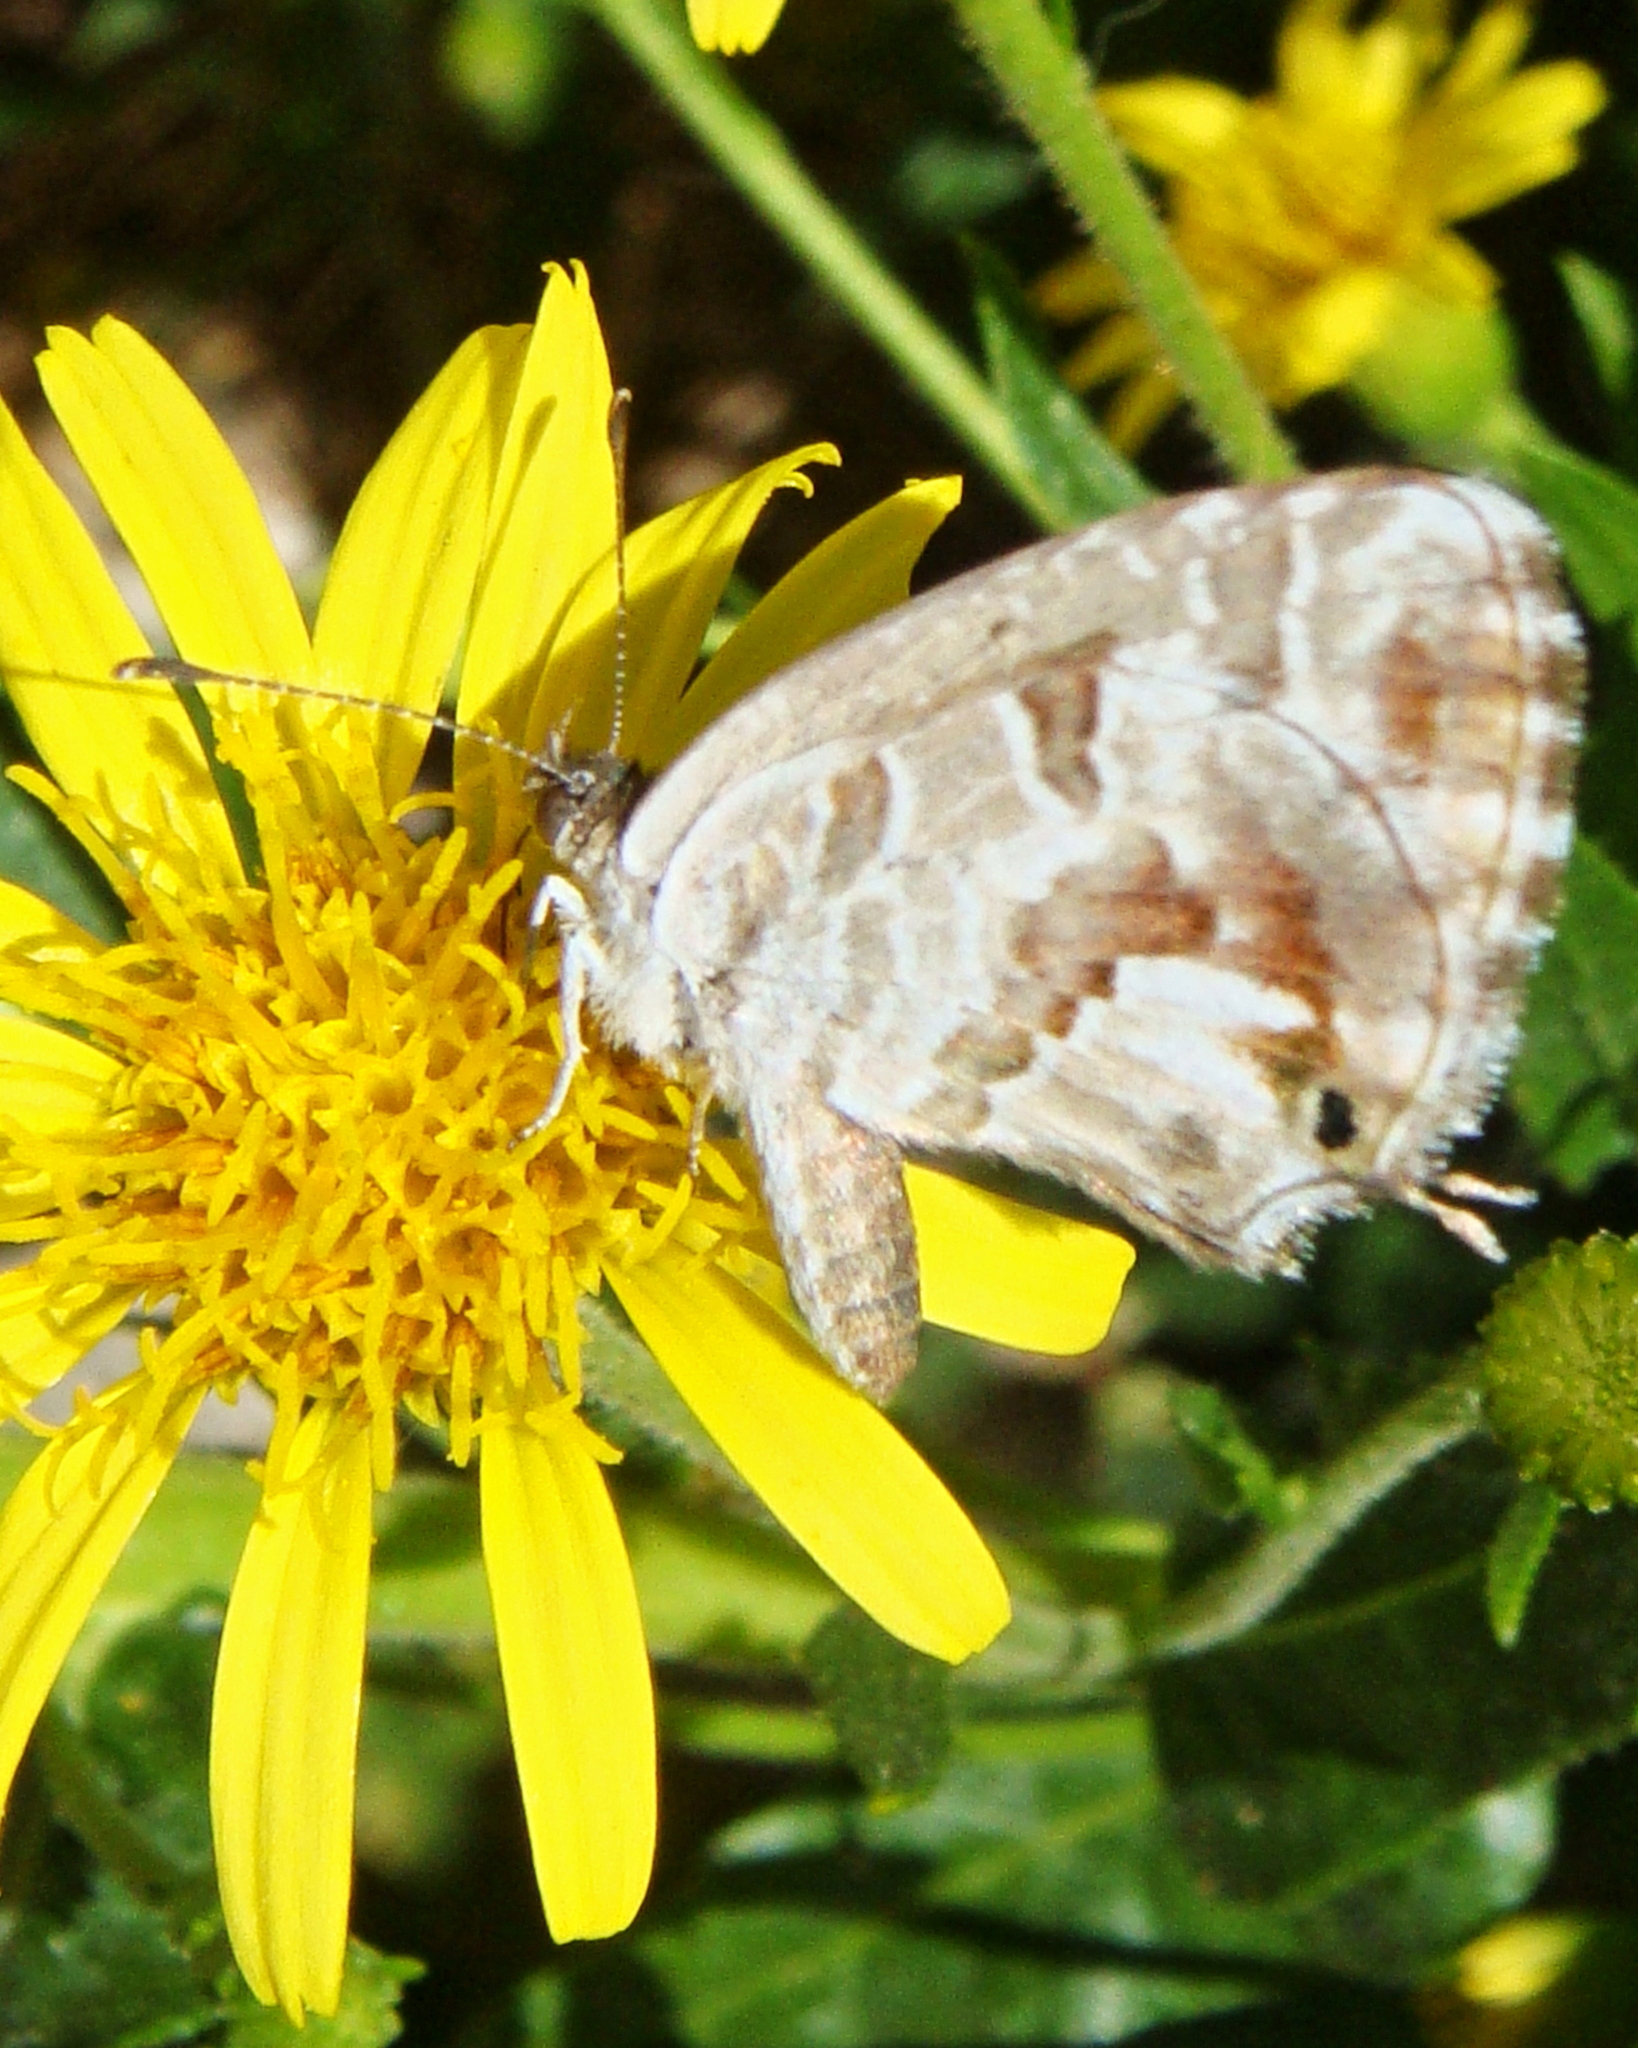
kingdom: Animalia
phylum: Arthropoda
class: Insecta
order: Lepidoptera
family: Lycaenidae
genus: Cacyreus
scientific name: Cacyreus marshalli
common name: Geranium bronze
